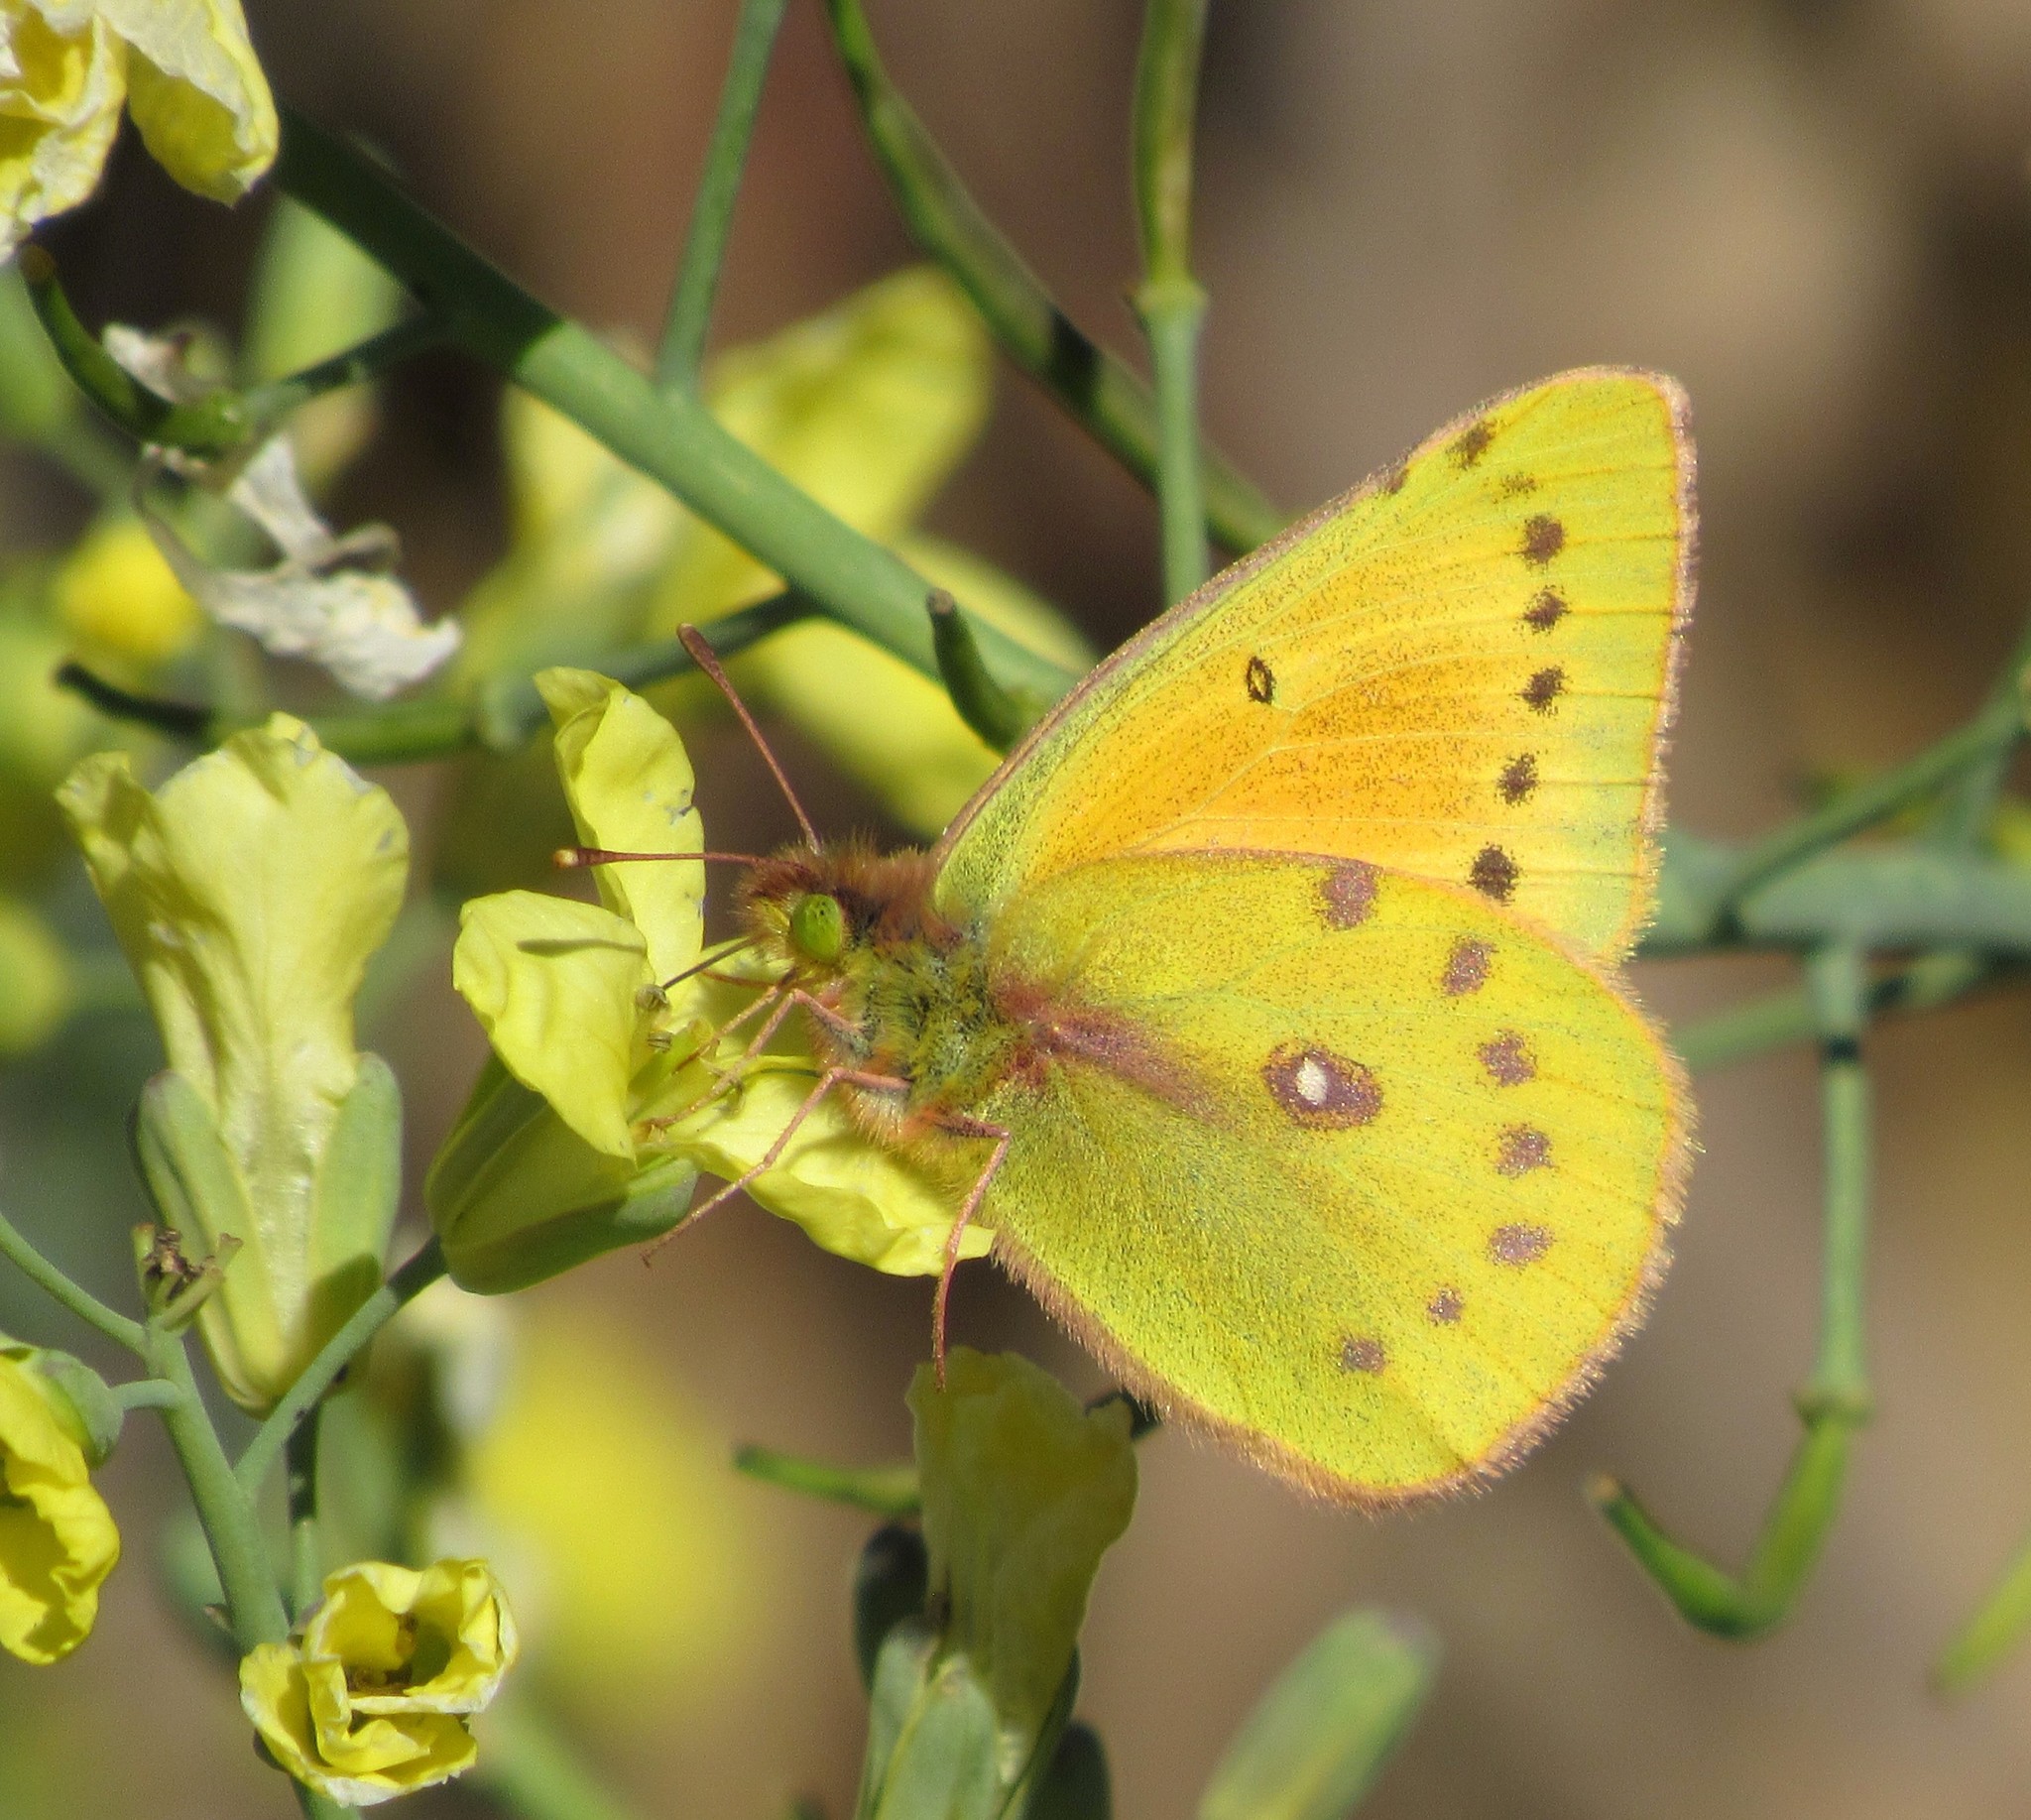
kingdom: Animalia
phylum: Arthropoda
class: Insecta
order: Lepidoptera
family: Pieridae
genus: Colias
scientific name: Colias lesbia
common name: Lesbia clouded yellow
